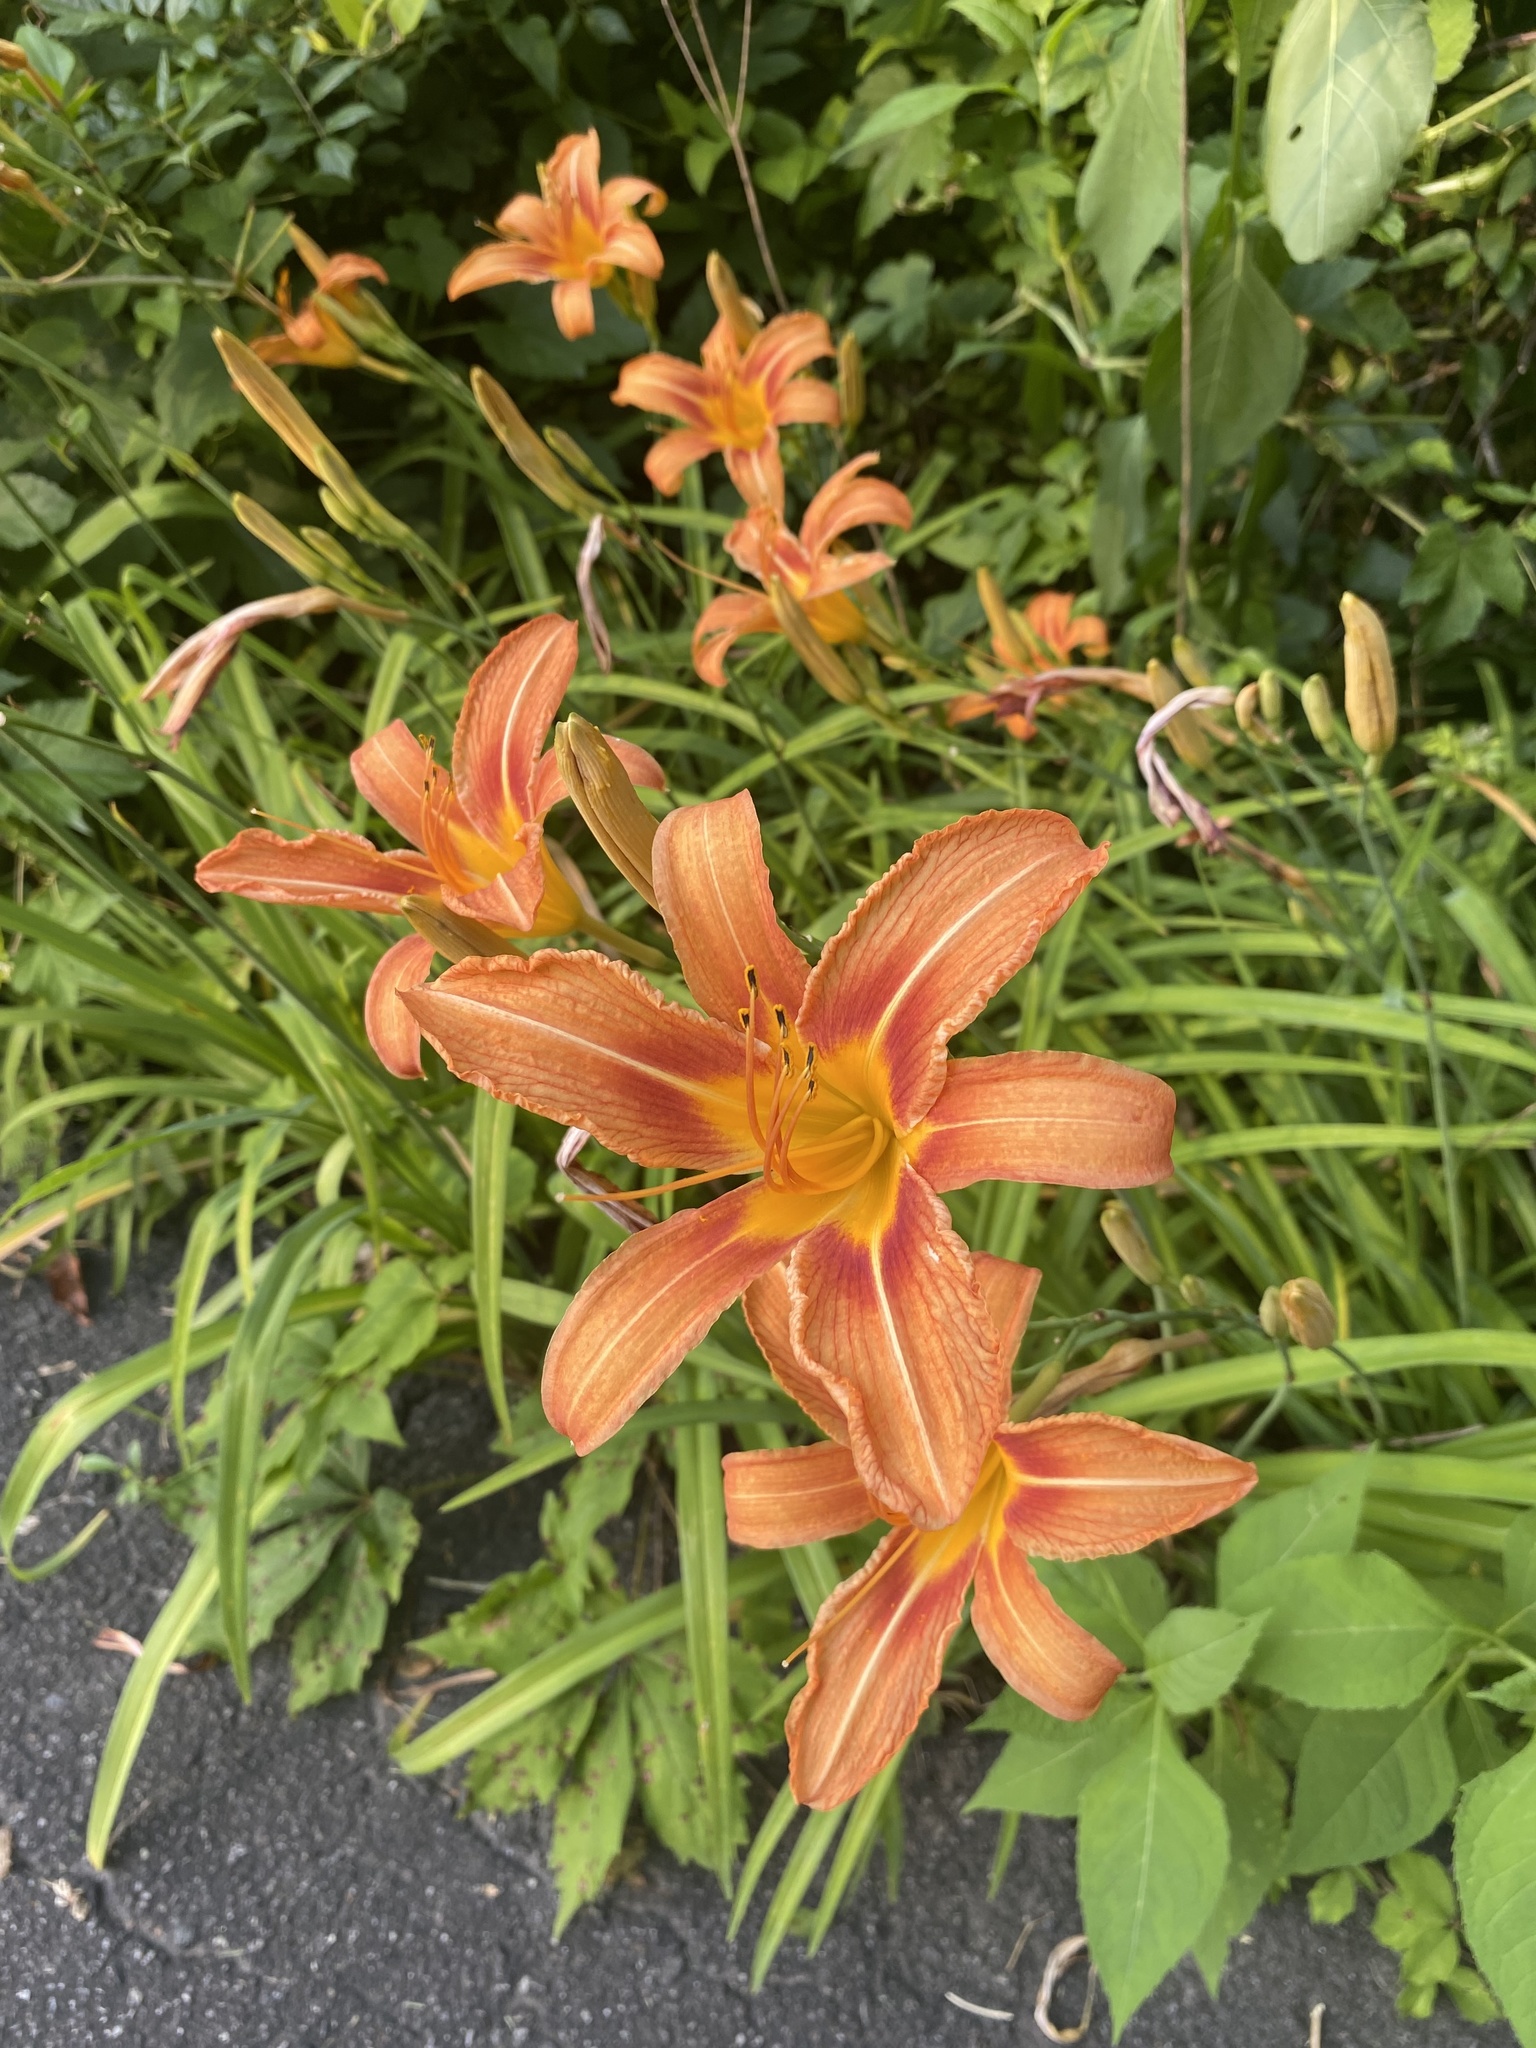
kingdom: Plantae
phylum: Tracheophyta
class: Liliopsida
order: Asparagales
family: Asphodelaceae
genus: Hemerocallis
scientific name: Hemerocallis fulva
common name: Orange day-lily
